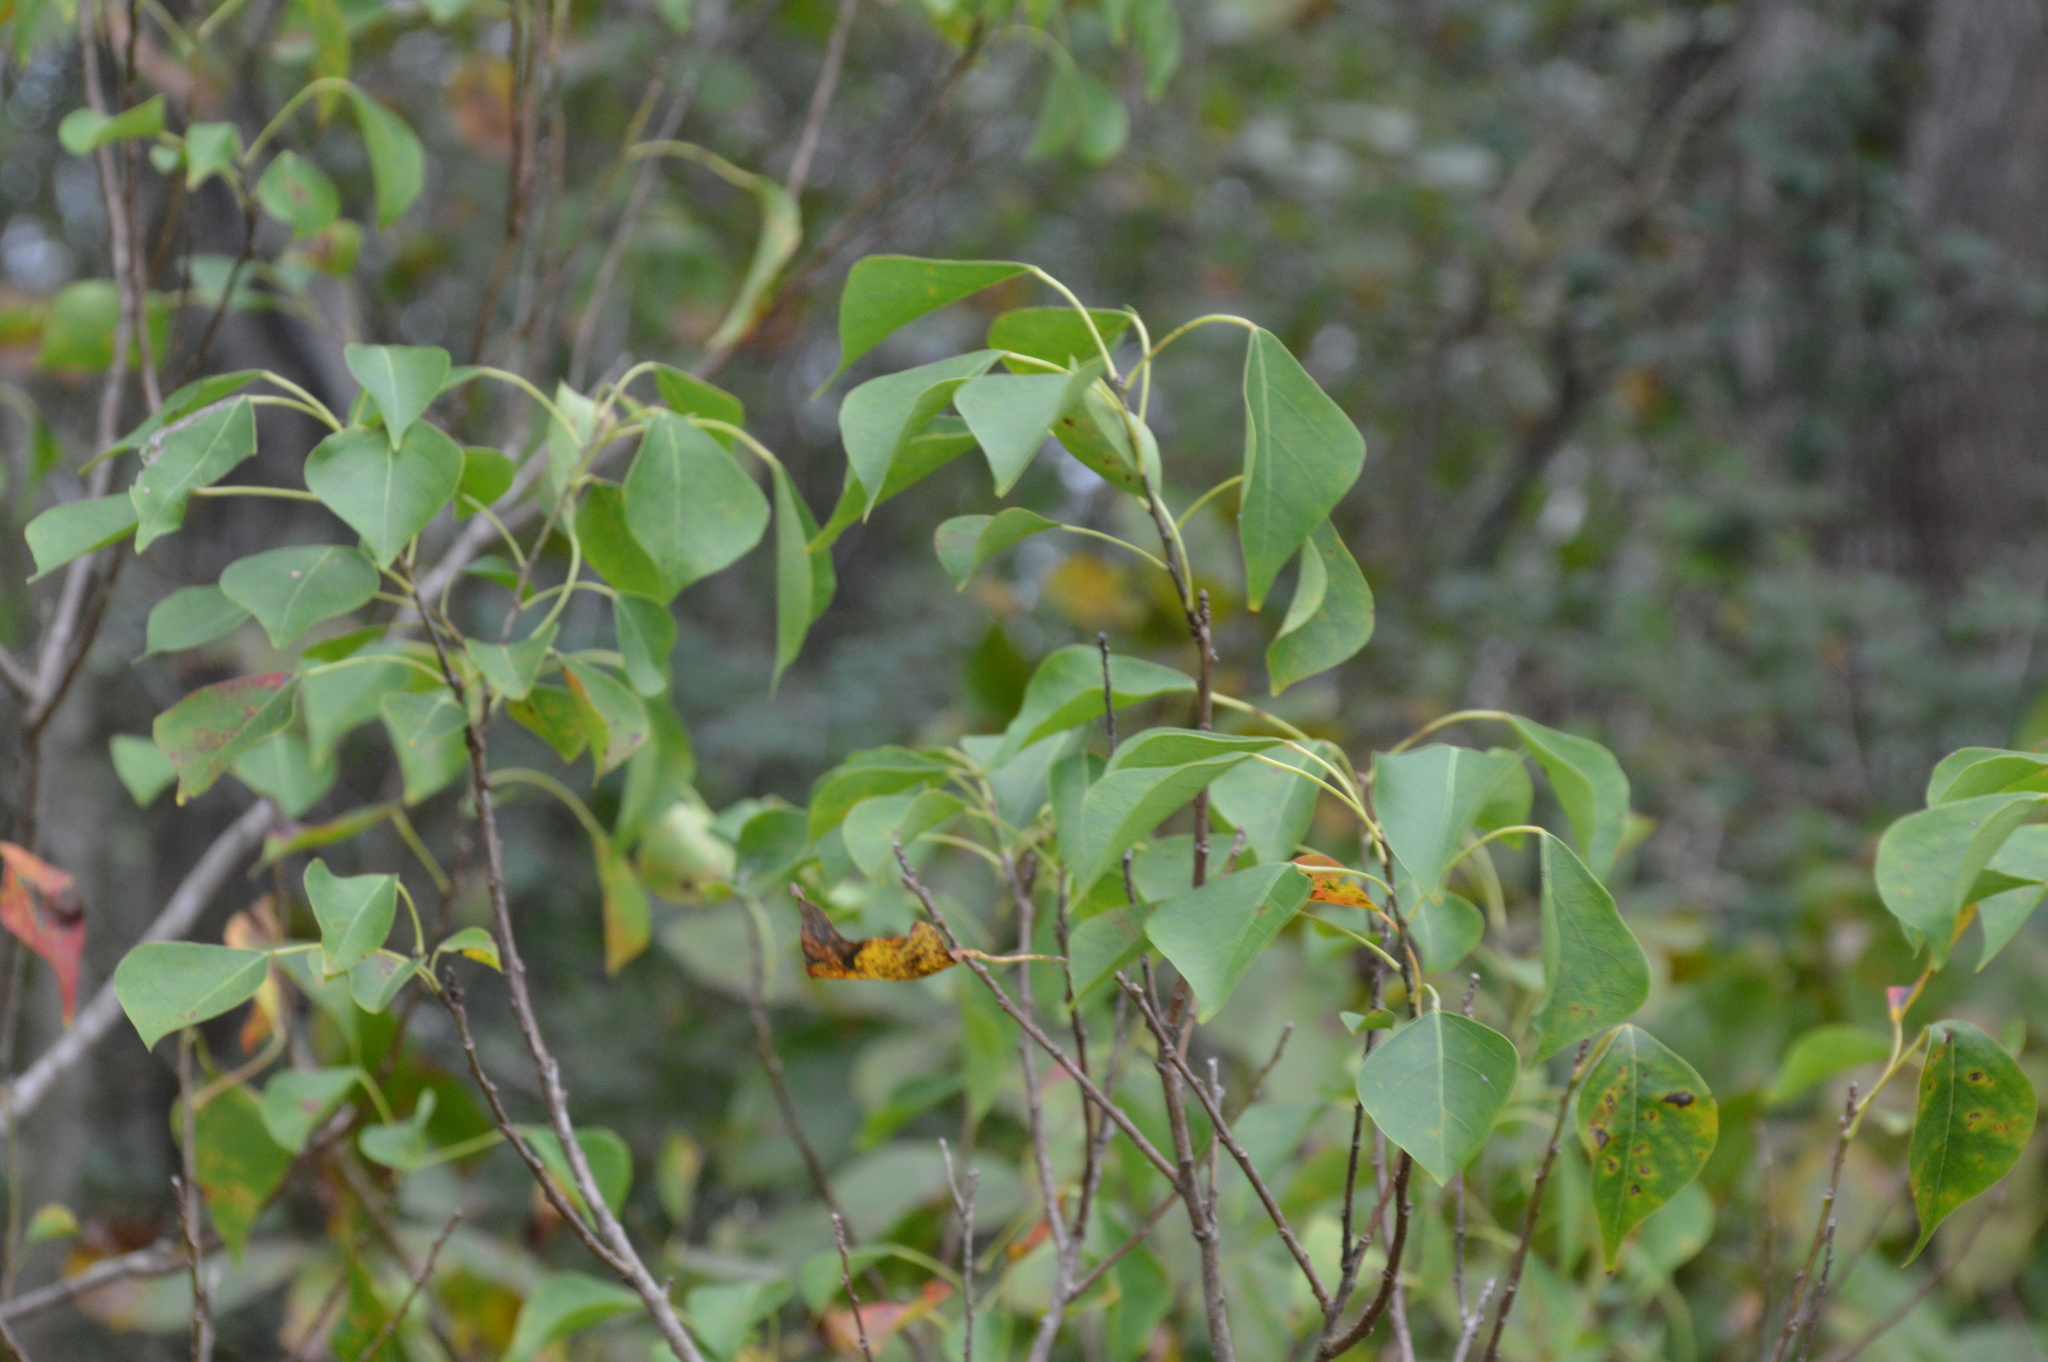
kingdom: Plantae
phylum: Tracheophyta
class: Magnoliopsida
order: Malpighiales
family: Euphorbiaceae
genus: Triadica
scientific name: Triadica sebifera
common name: Chinese tallow
